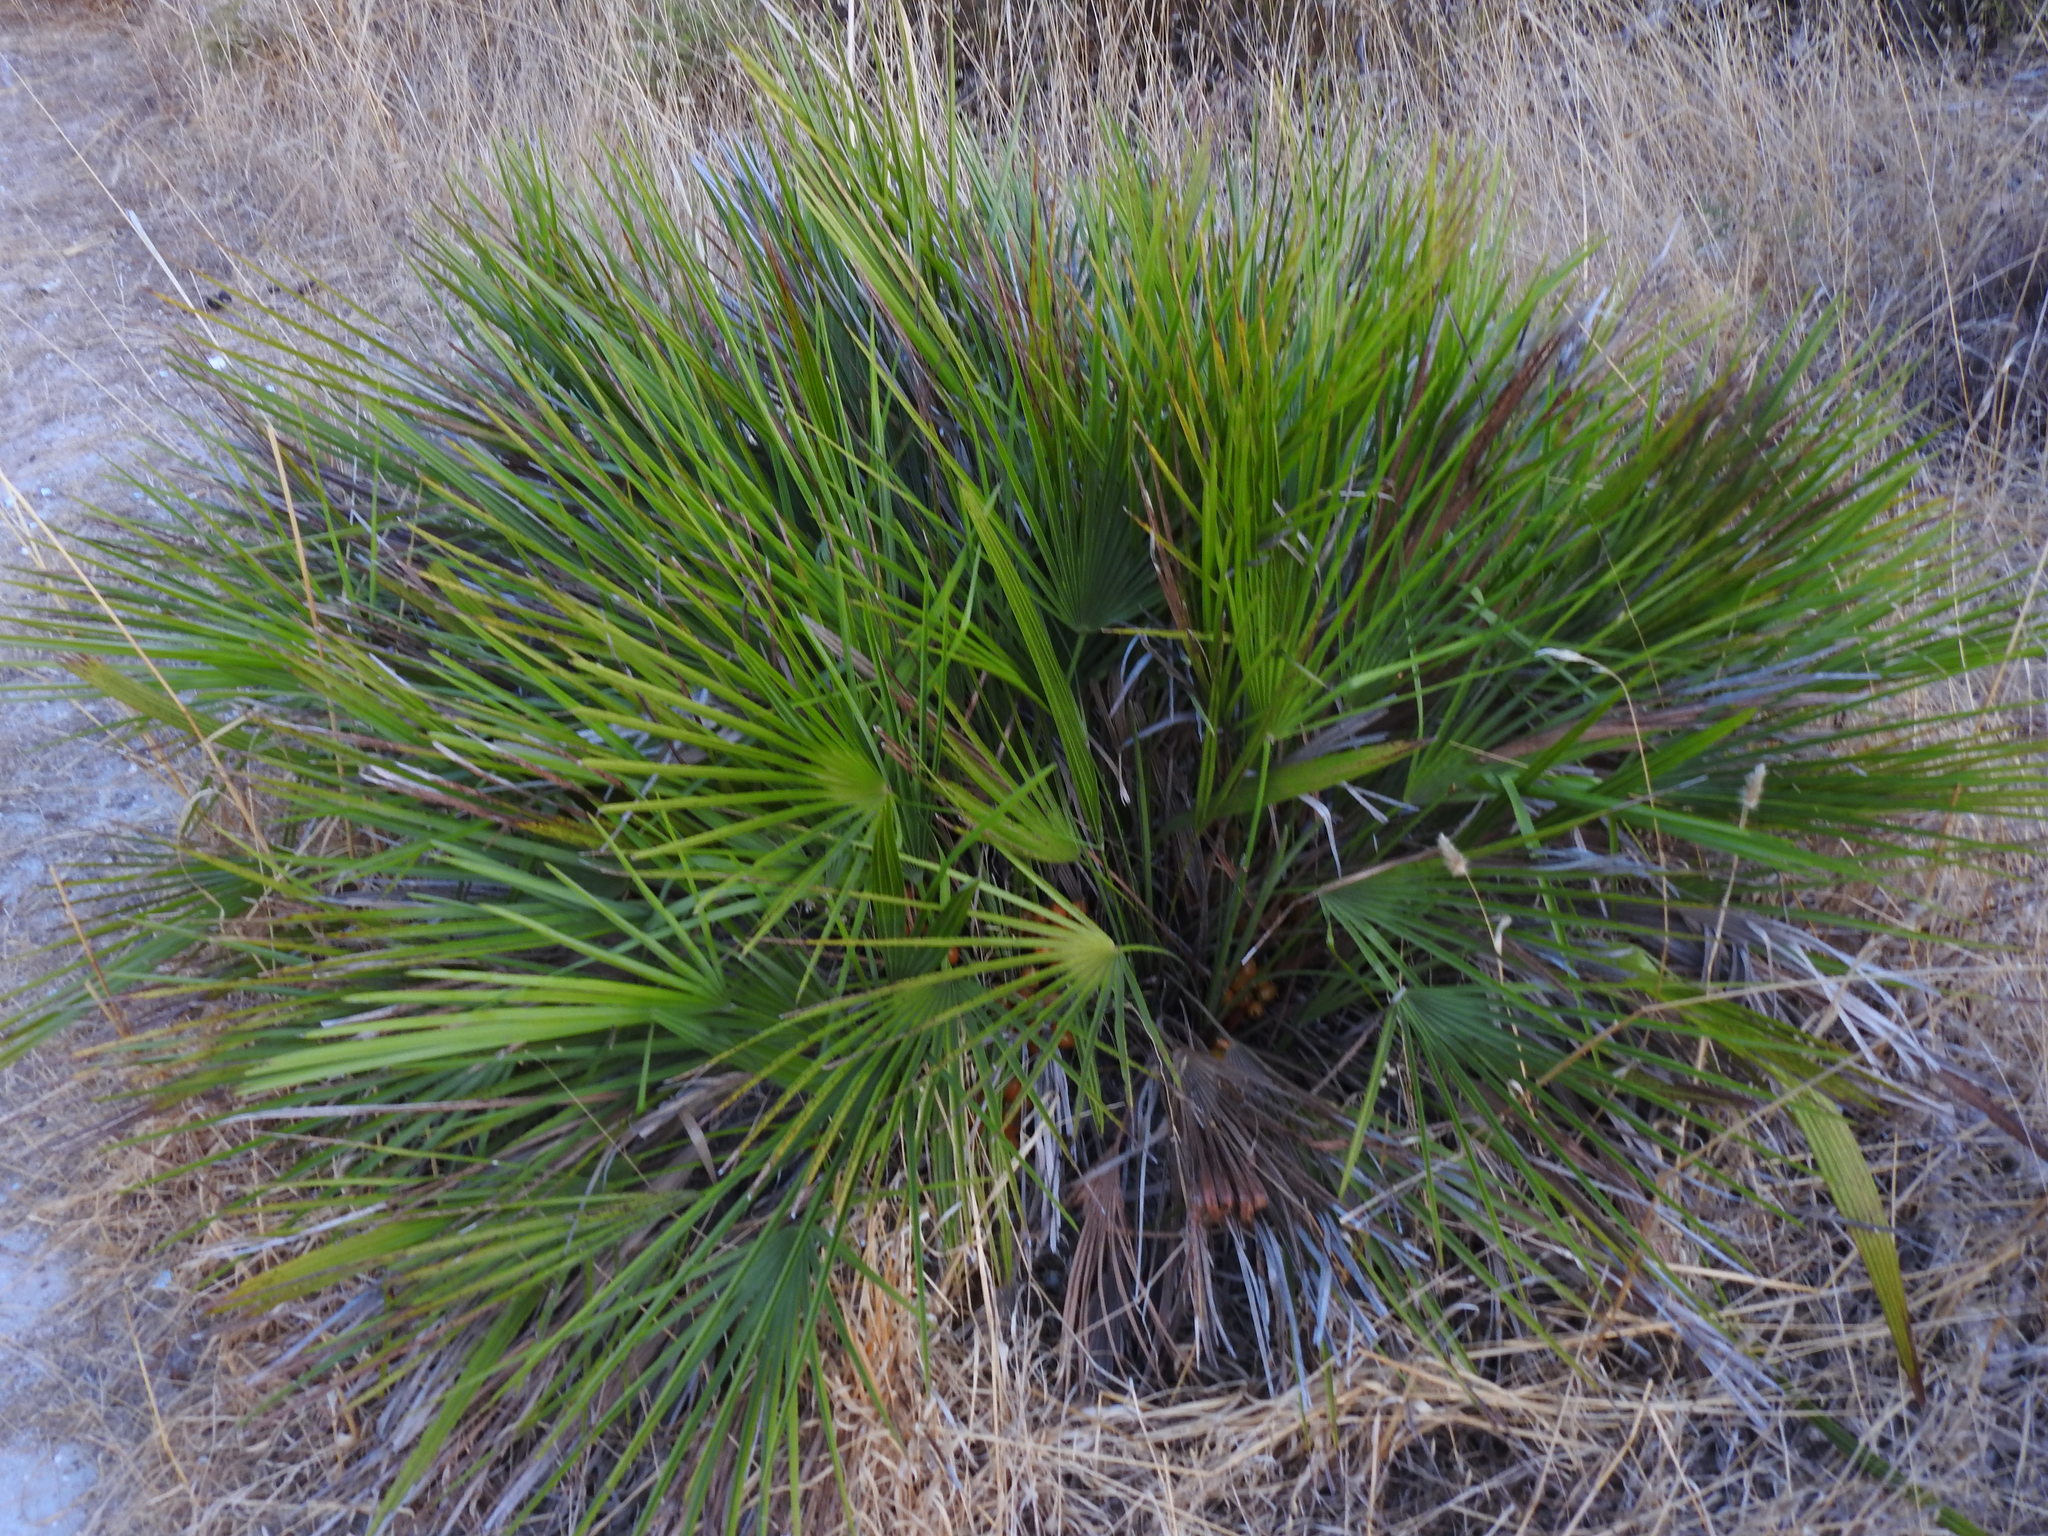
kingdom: Plantae
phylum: Tracheophyta
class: Liliopsida
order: Arecales
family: Arecaceae
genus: Chamaerops
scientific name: Chamaerops humilis
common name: Dwarf fan palm
